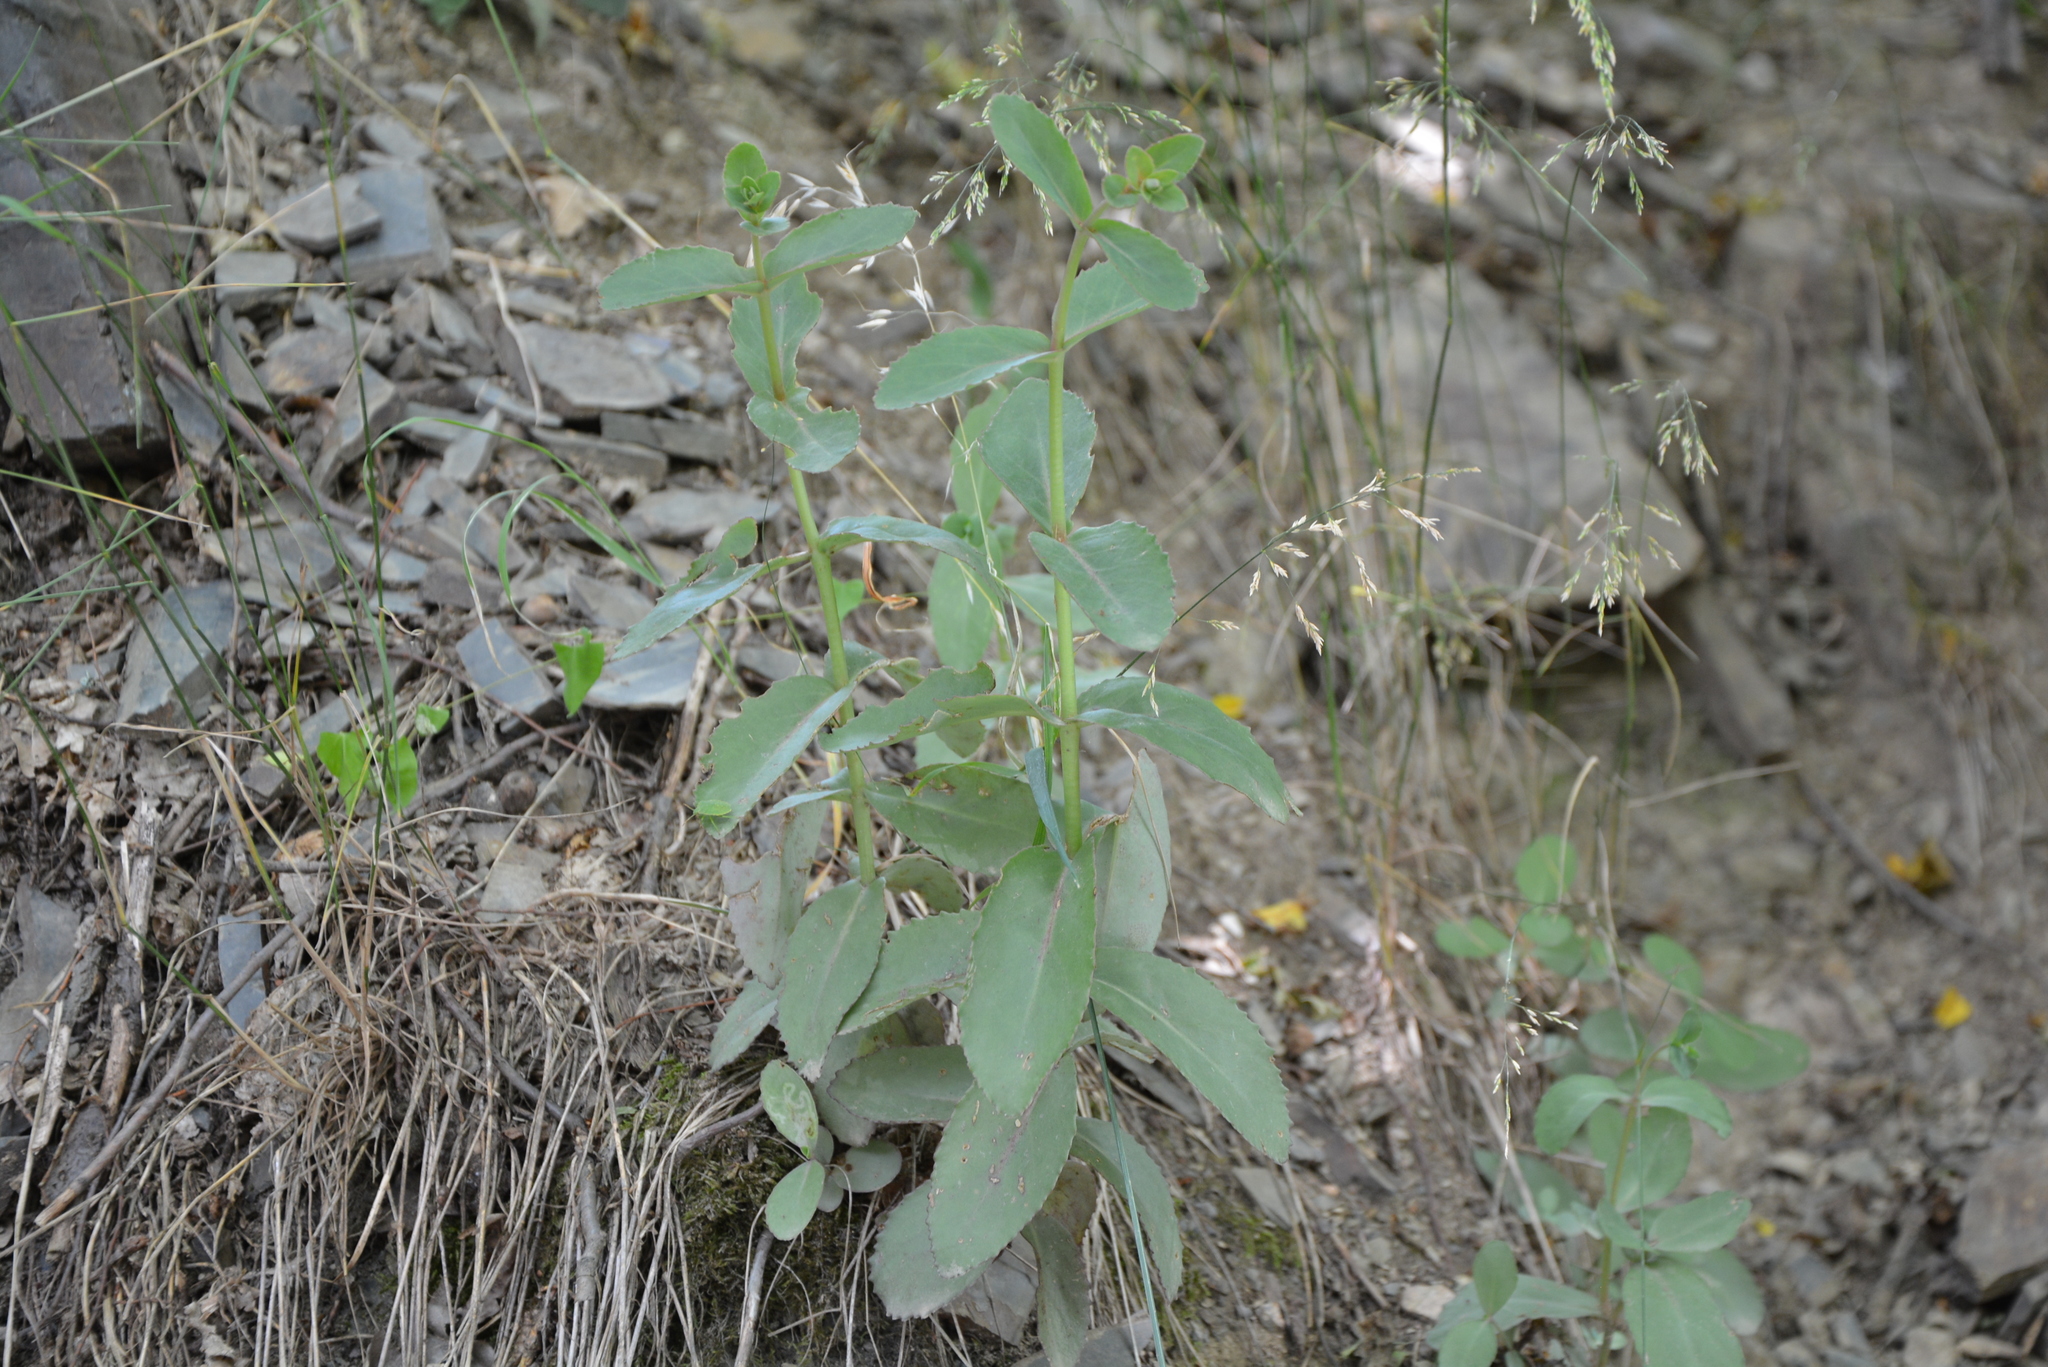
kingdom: Plantae
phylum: Tracheophyta
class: Magnoliopsida
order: Saxifragales
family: Crassulaceae
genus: Hylotelephium
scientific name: Hylotelephium maximum
